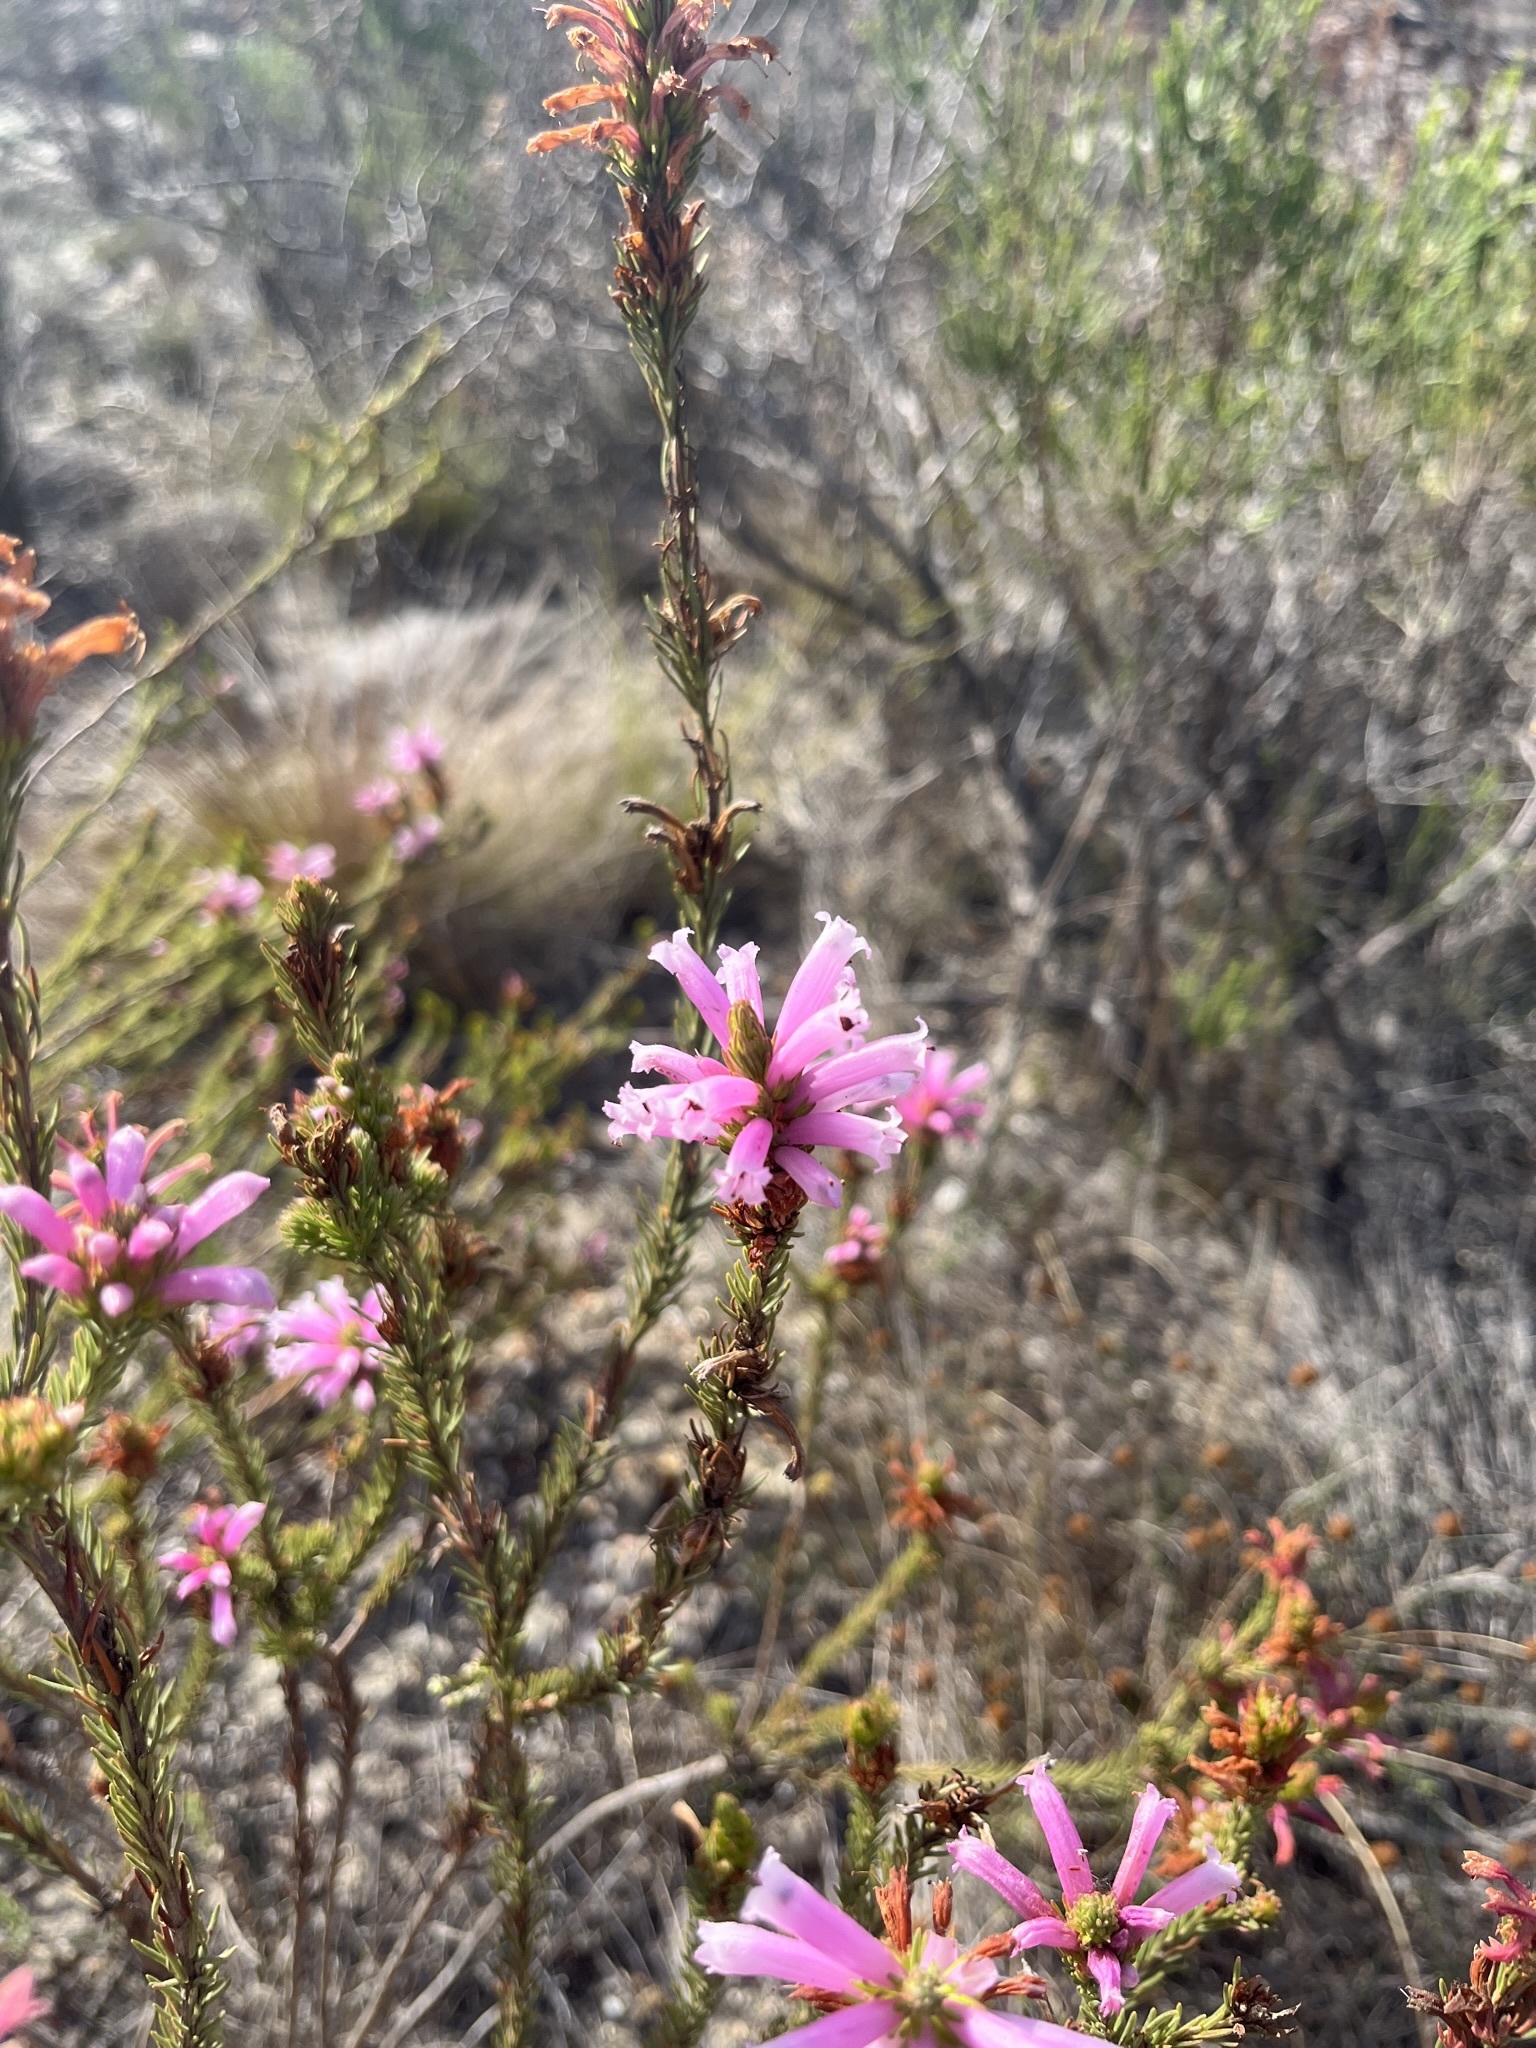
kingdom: Plantae
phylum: Tracheophyta
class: Magnoliopsida
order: Ericales
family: Ericaceae
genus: Erica
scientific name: Erica viscaria
